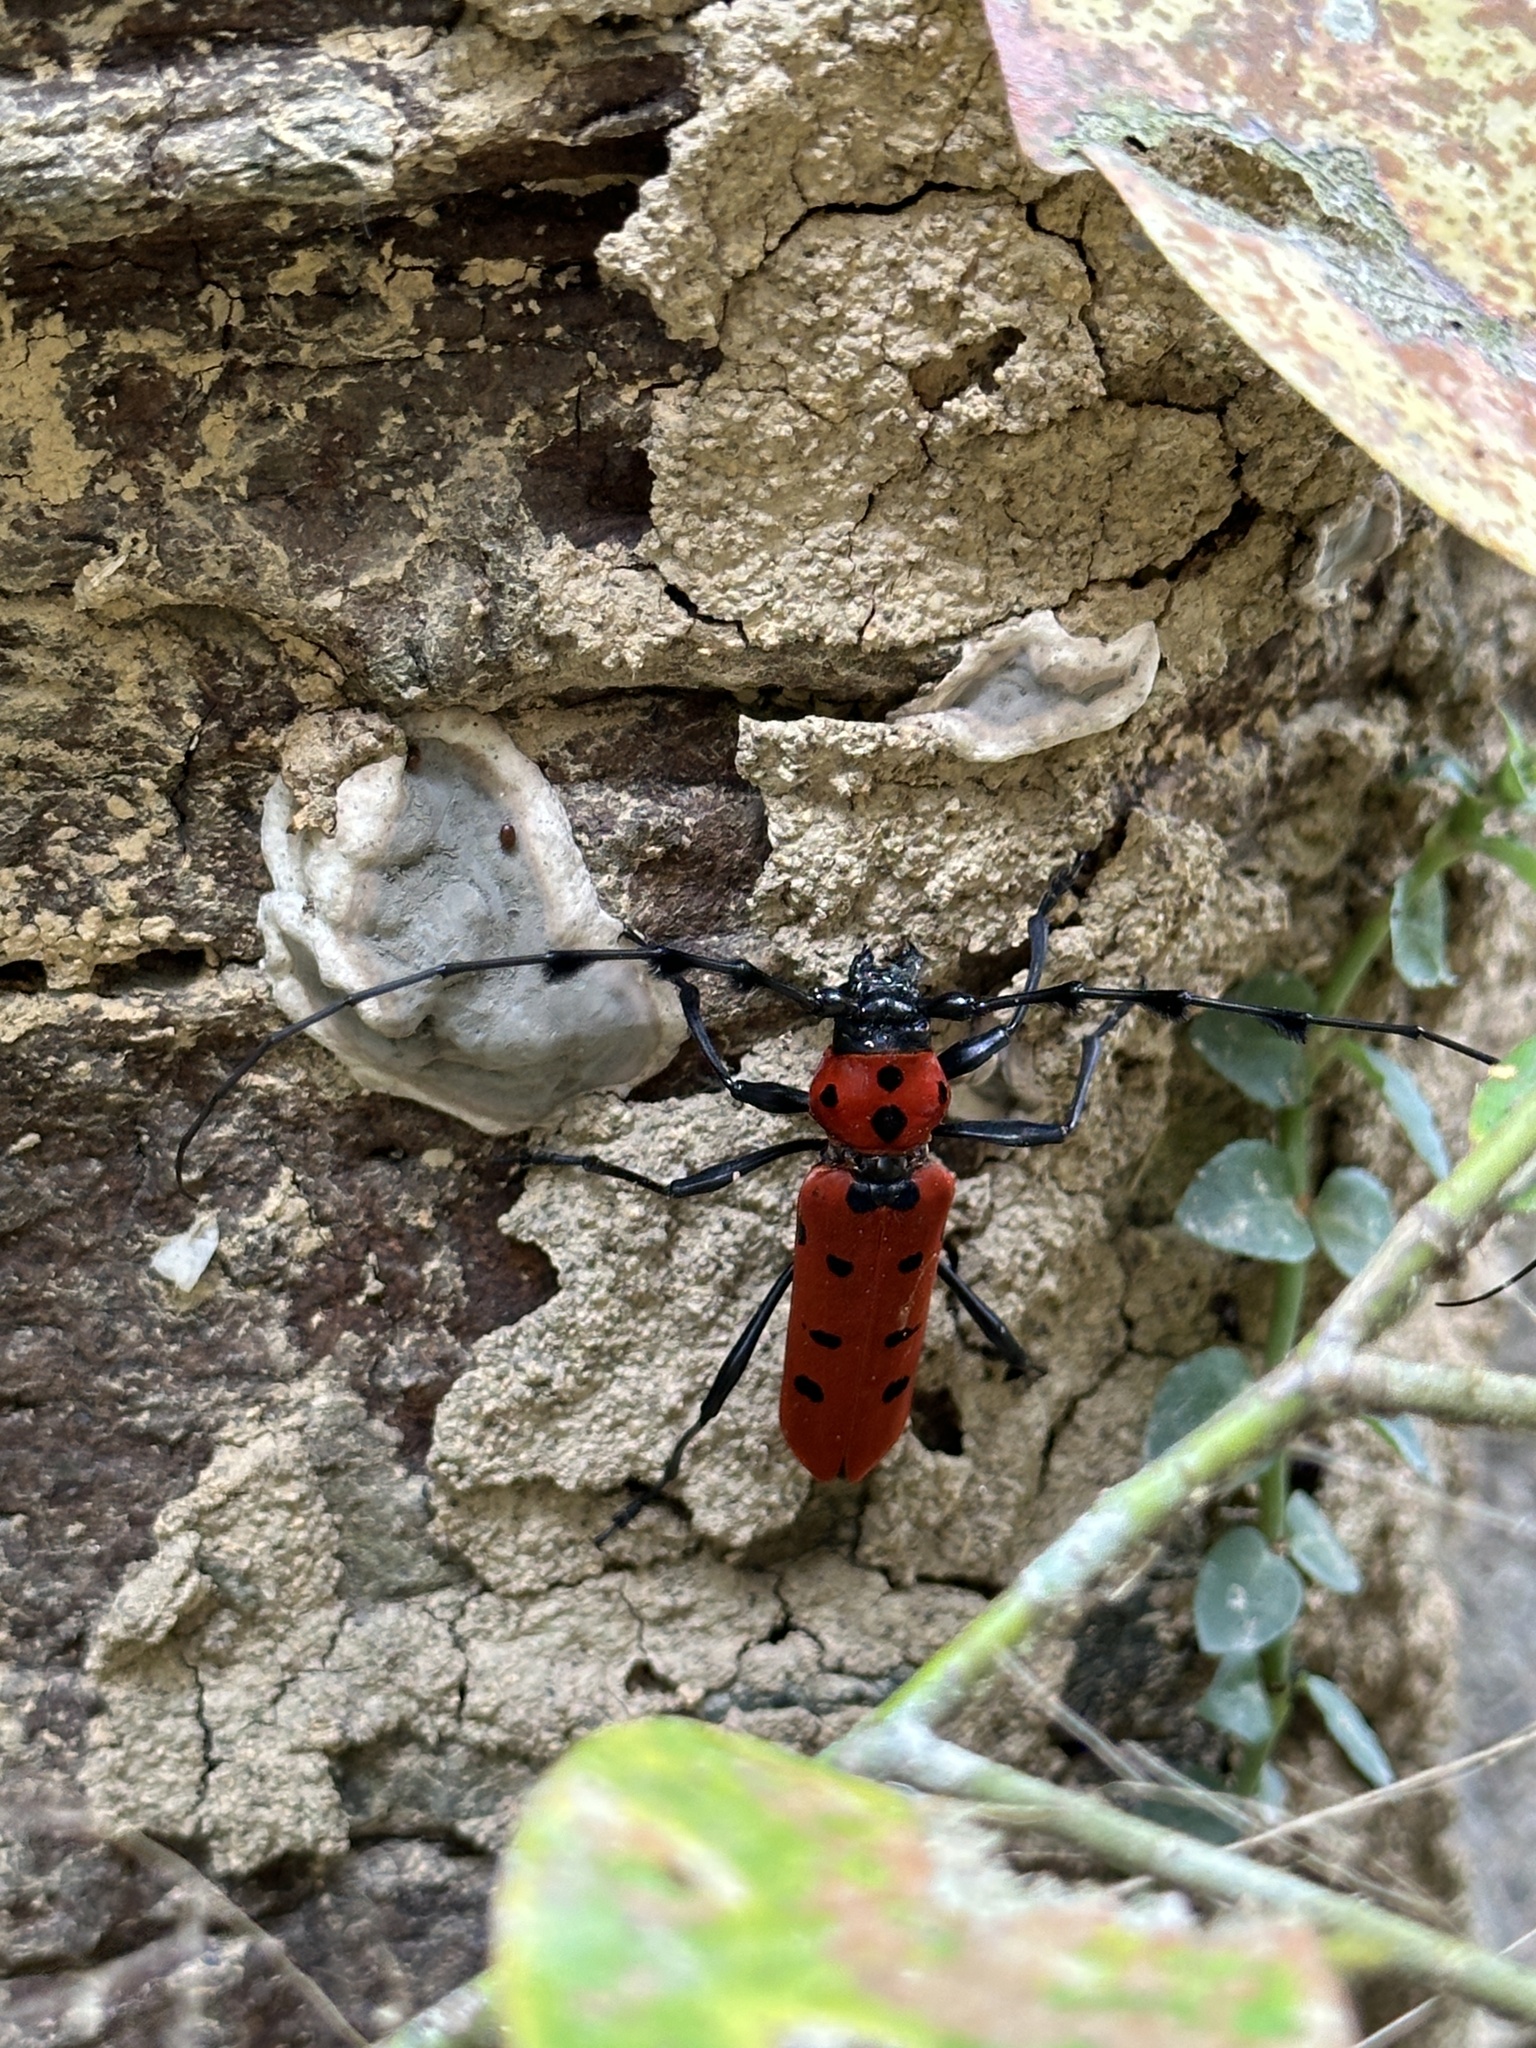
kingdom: Animalia
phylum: Arthropoda
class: Insecta
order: Coleoptera
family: Cerambycidae
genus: Rosalia
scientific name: Rosalia lesnei
